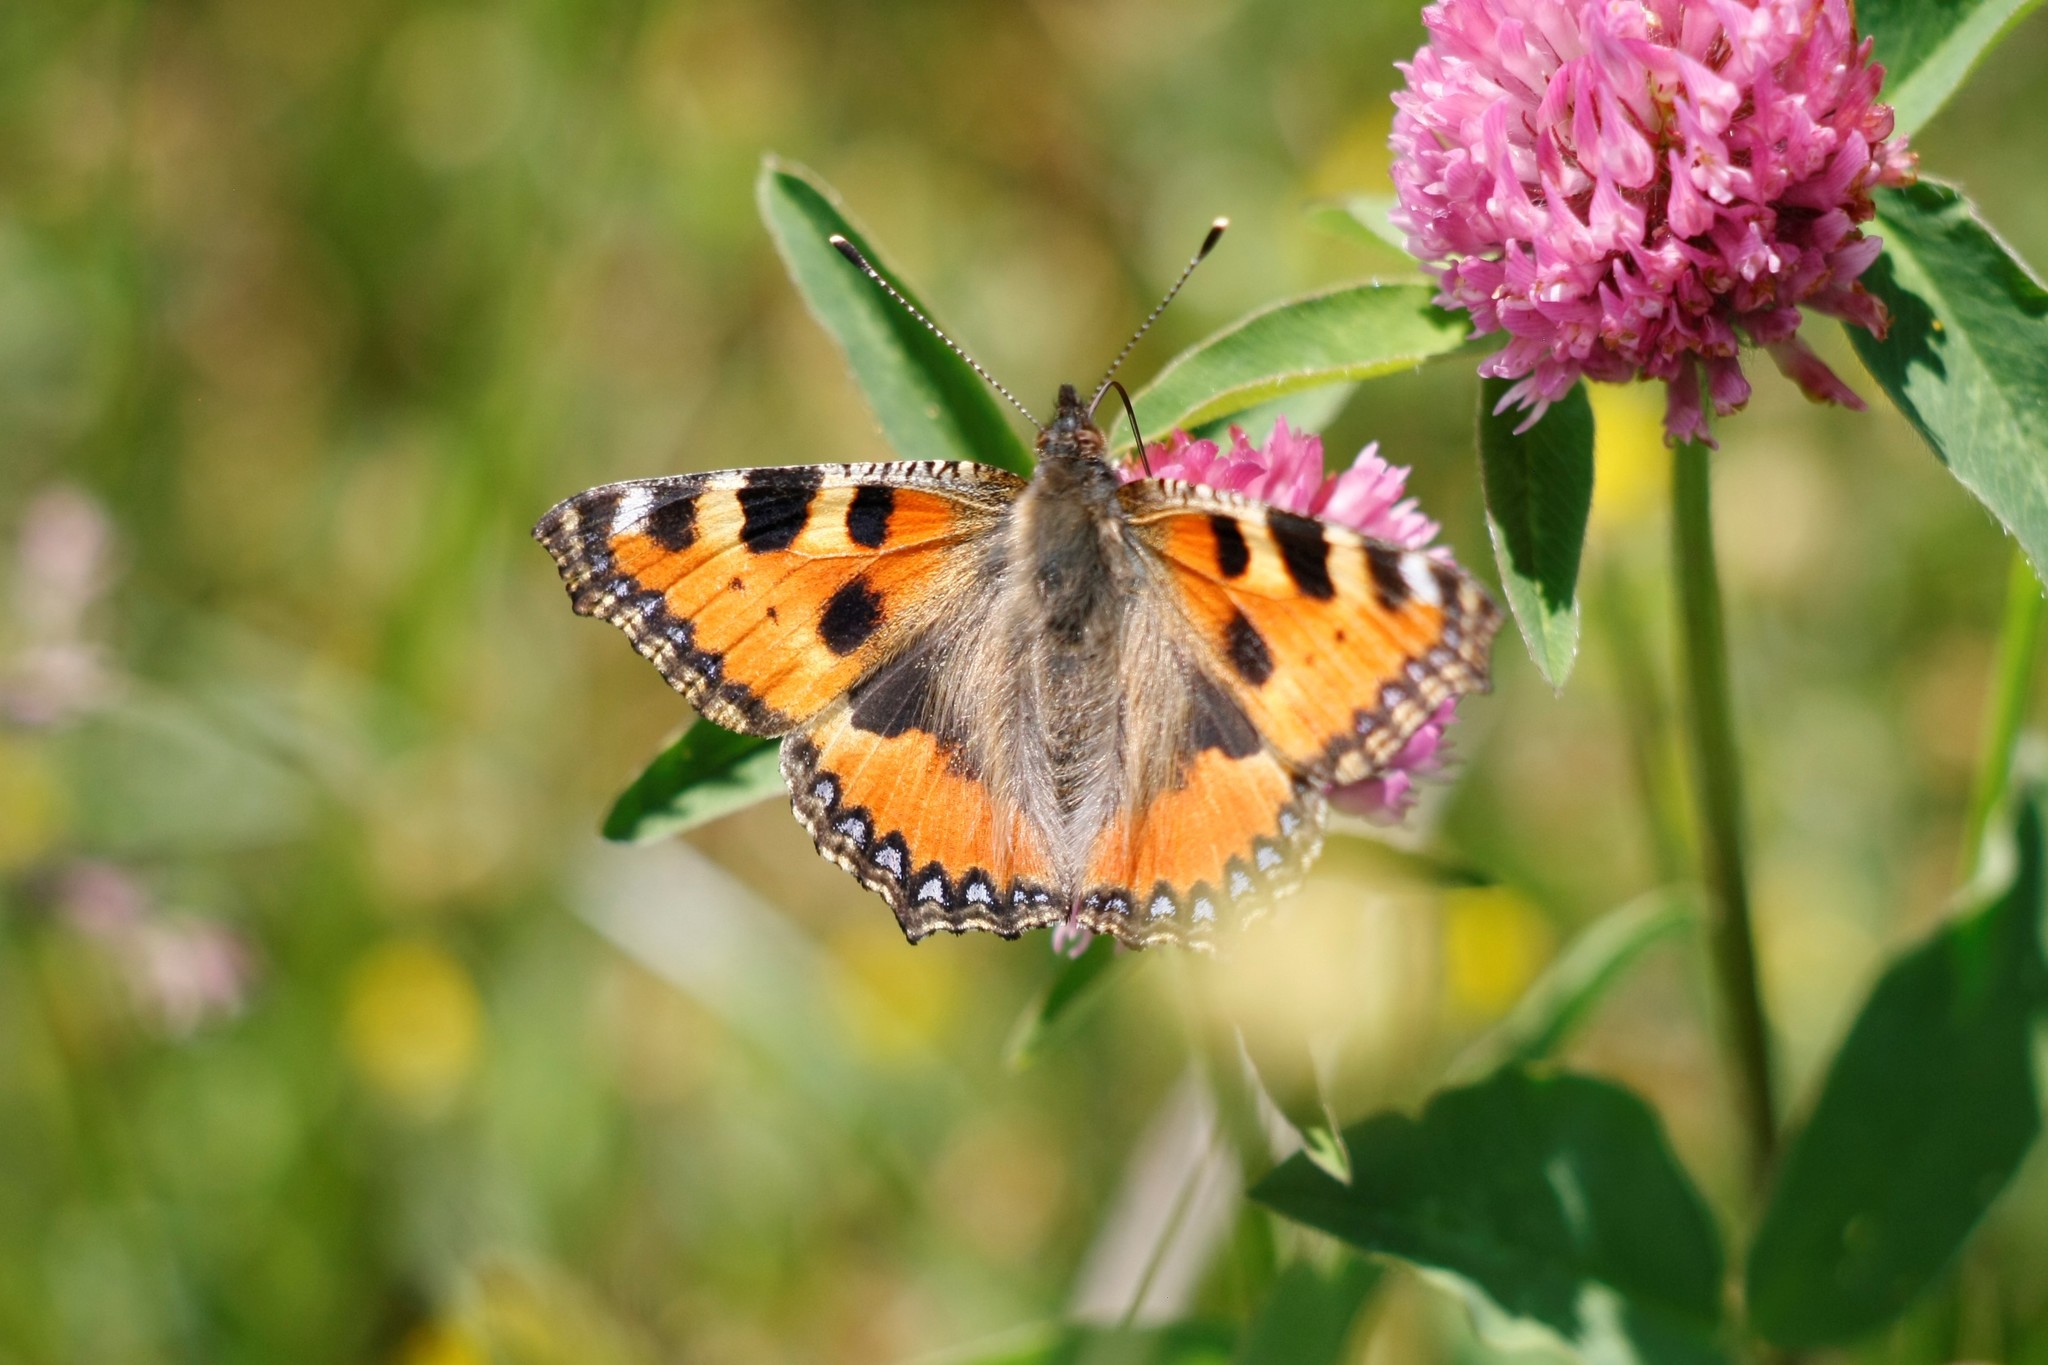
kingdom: Animalia
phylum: Arthropoda
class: Insecta
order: Lepidoptera
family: Nymphalidae
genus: Aglais
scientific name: Aglais urticae
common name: Small tortoiseshell
